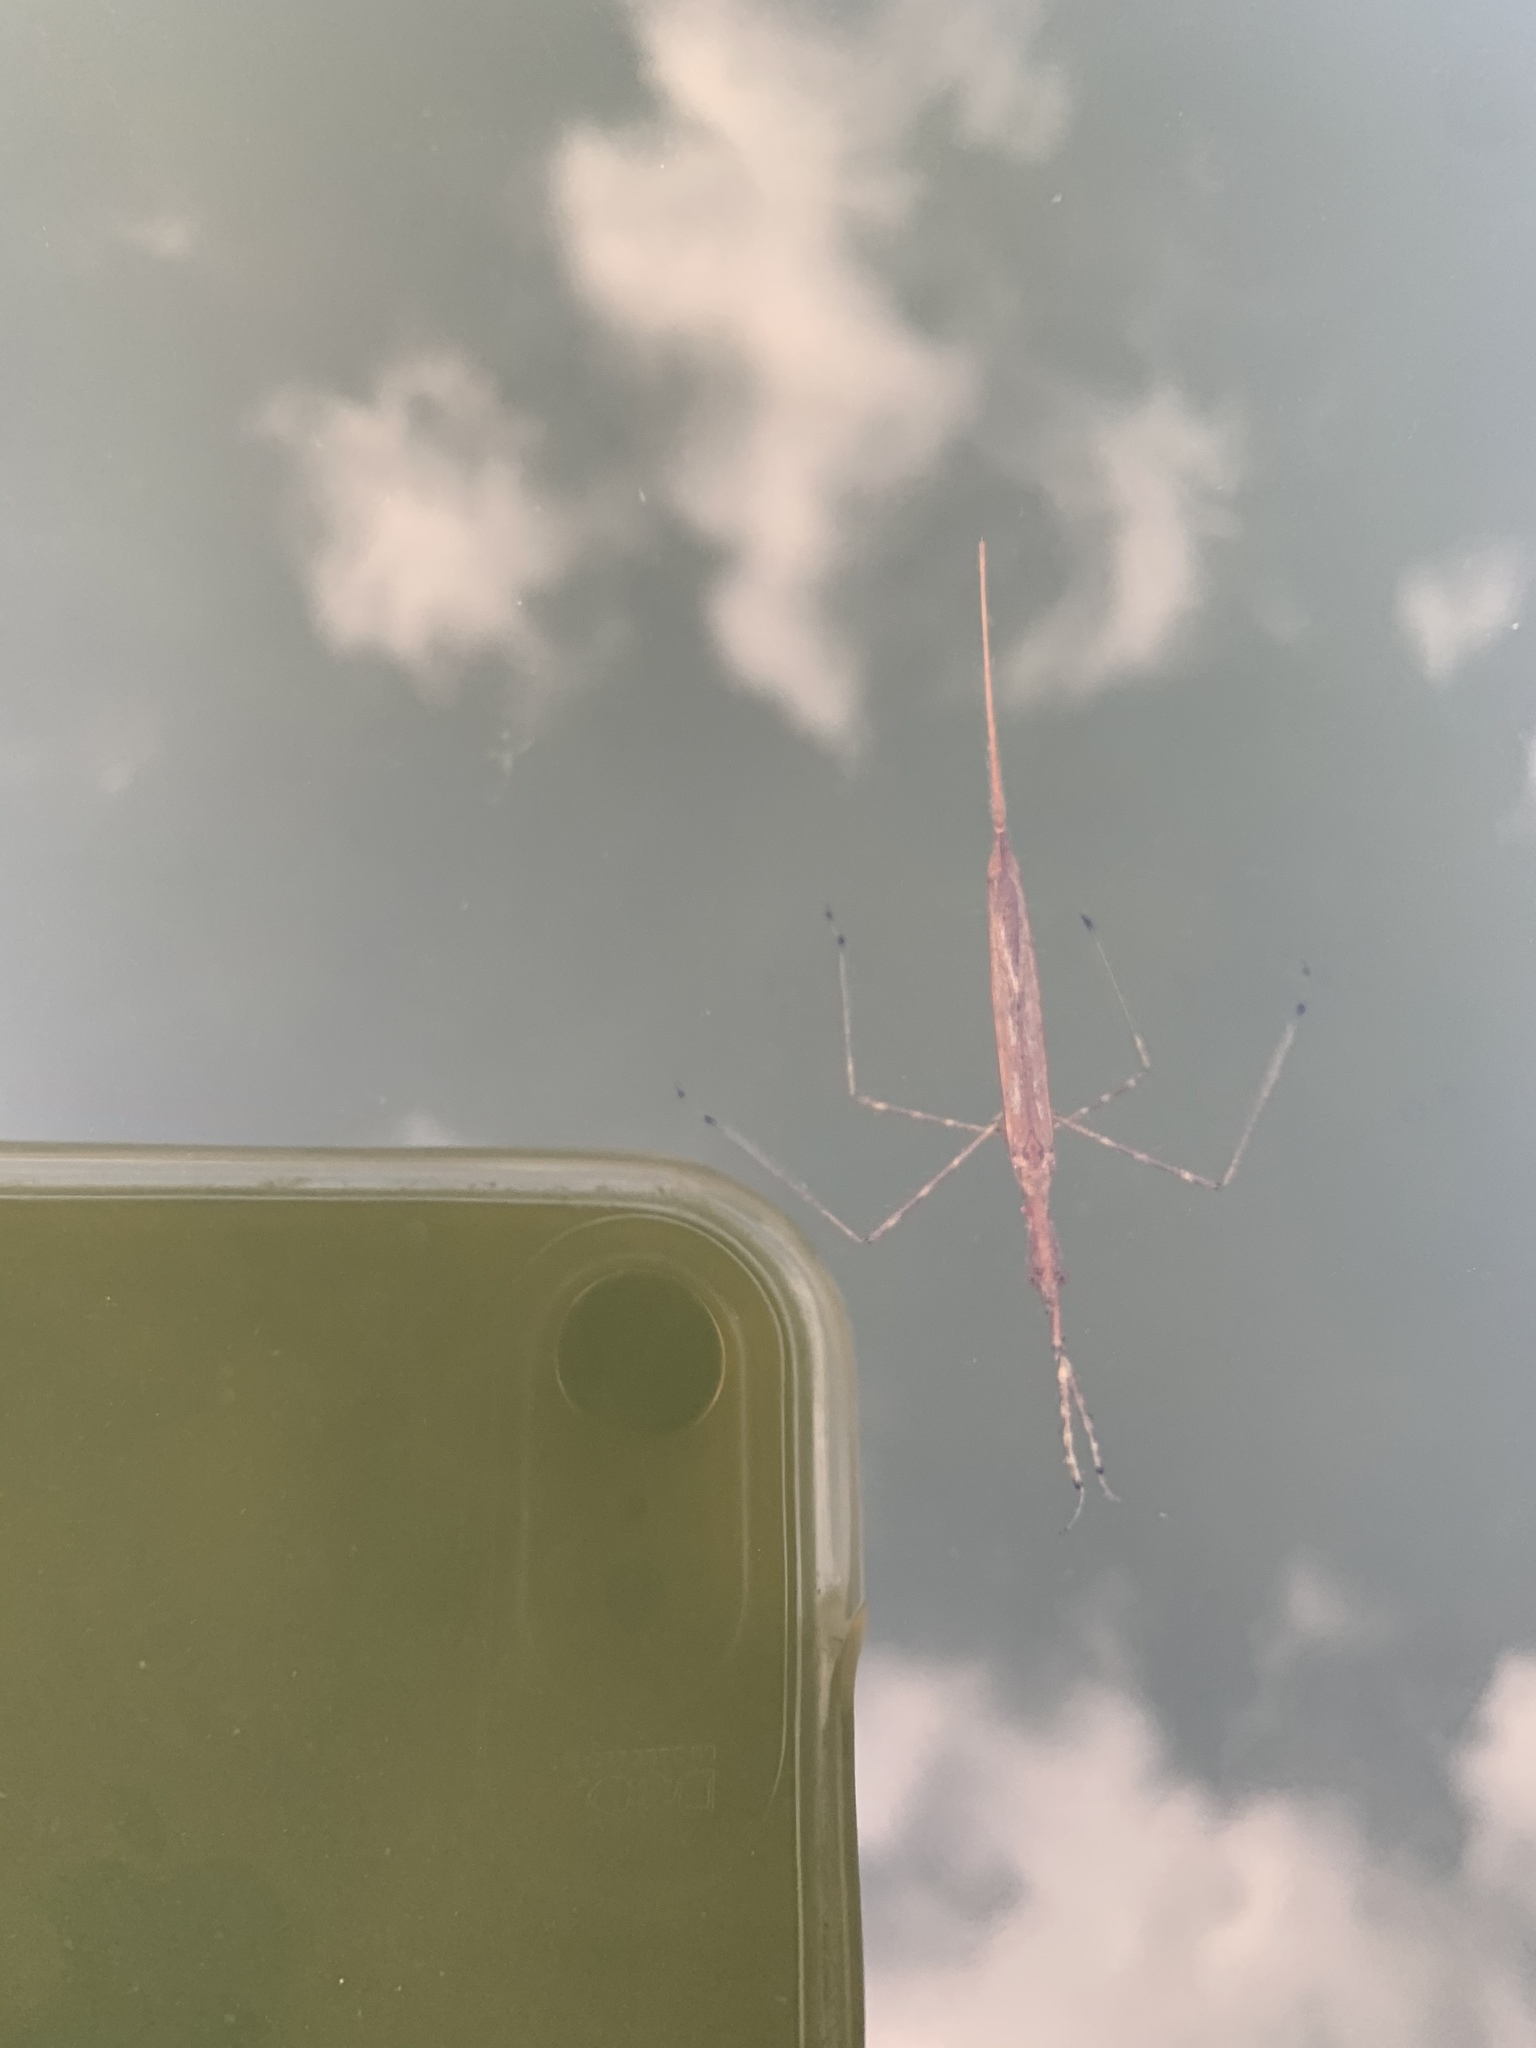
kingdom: Animalia
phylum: Arthropoda
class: Insecta
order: Hemiptera
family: Nepidae
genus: Ranatra
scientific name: Ranatra
